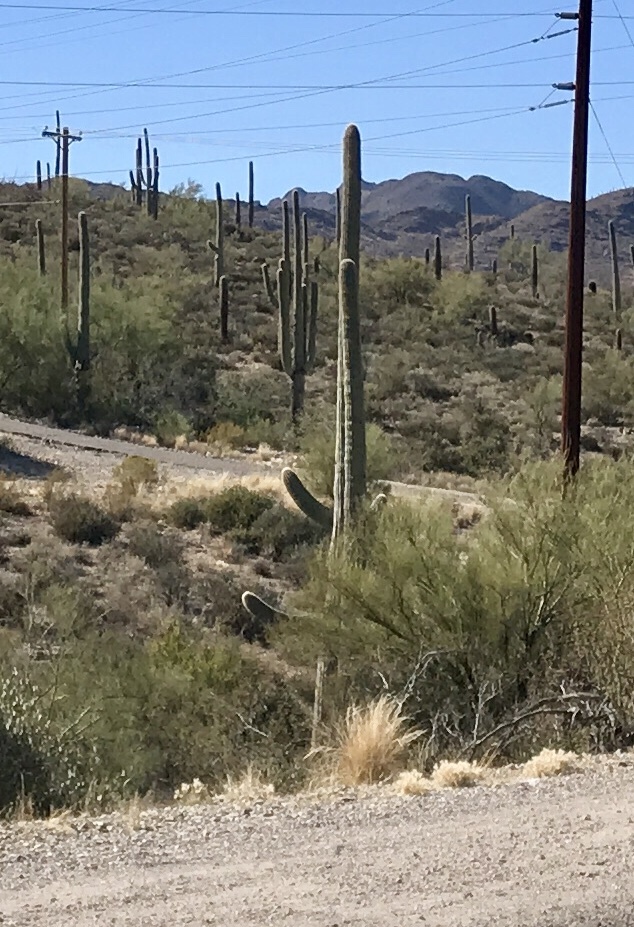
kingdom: Plantae
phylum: Tracheophyta
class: Magnoliopsida
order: Caryophyllales
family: Cactaceae
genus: Carnegiea
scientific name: Carnegiea gigantea
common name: Saguaro
